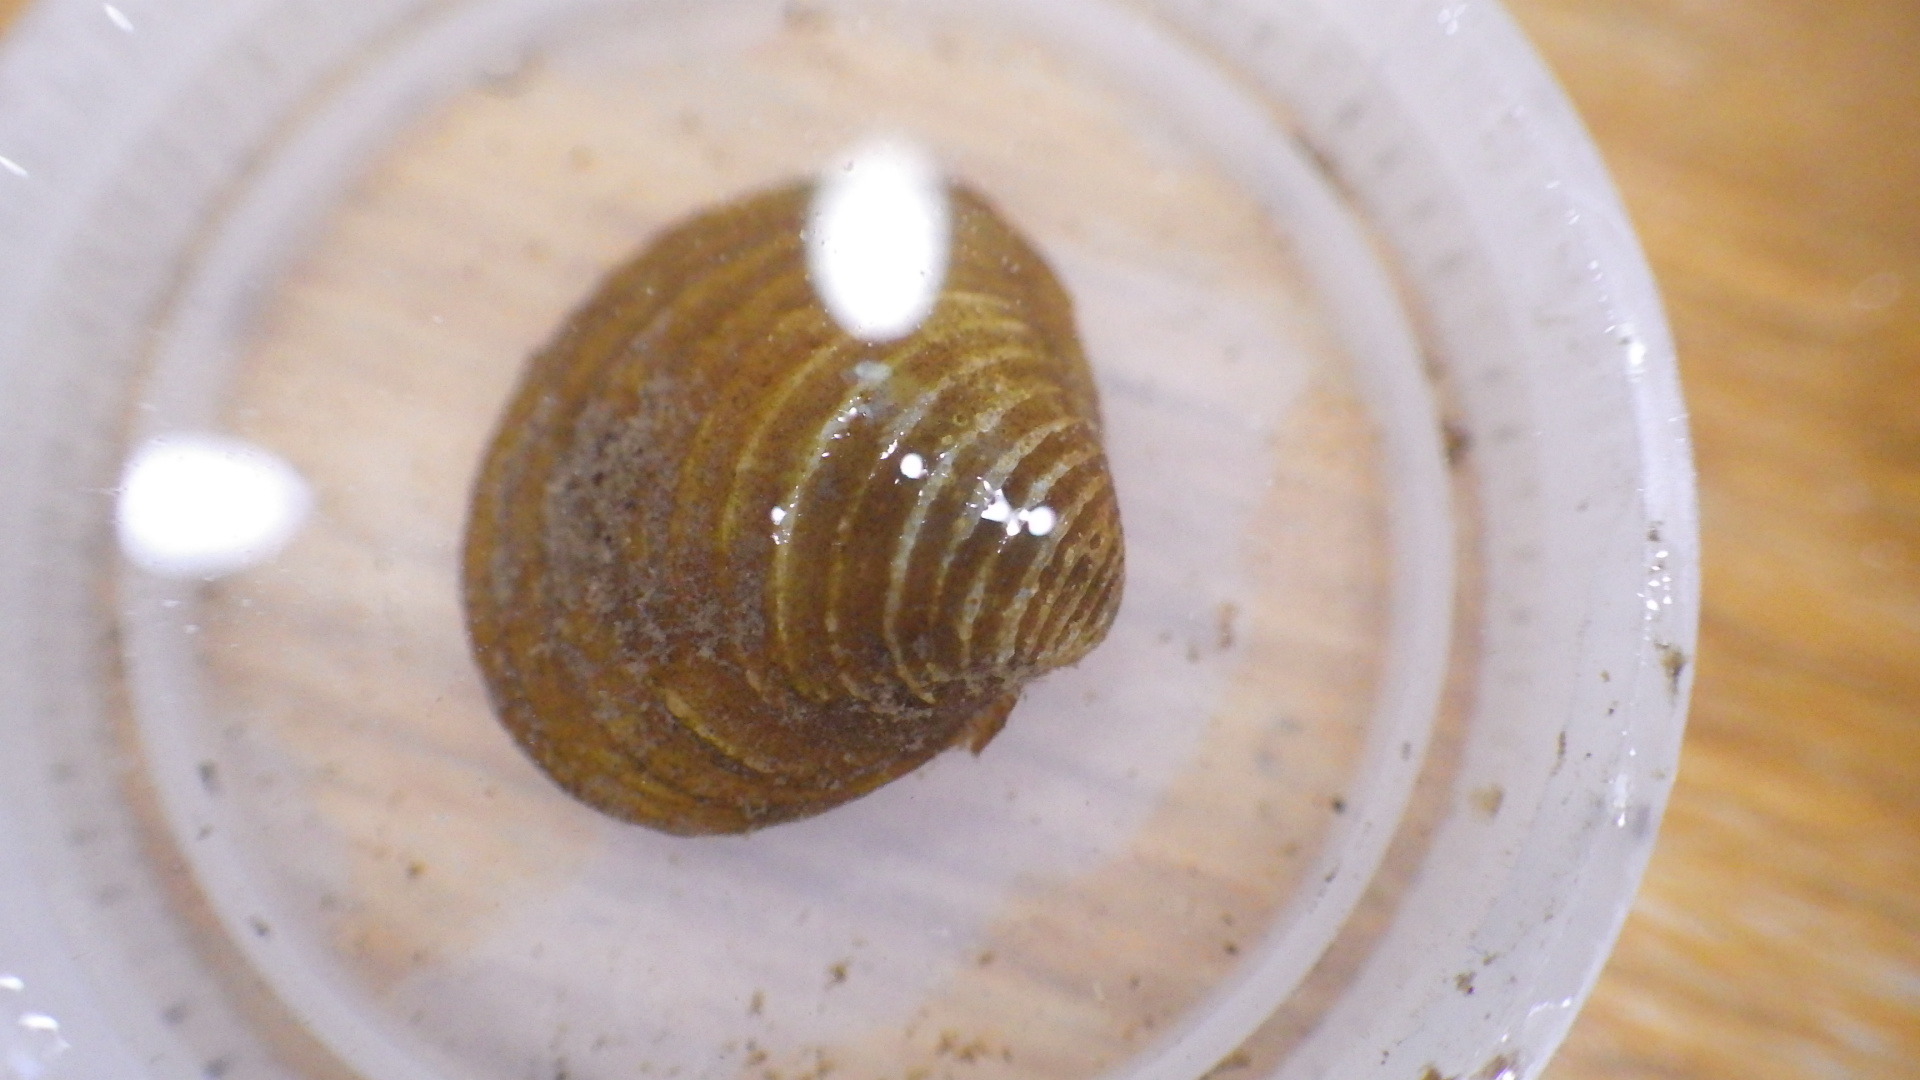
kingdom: Animalia
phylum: Mollusca
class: Bivalvia
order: Venerida
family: Cyrenidae
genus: Corbicula
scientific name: Corbicula fluminea
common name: Asian clam
